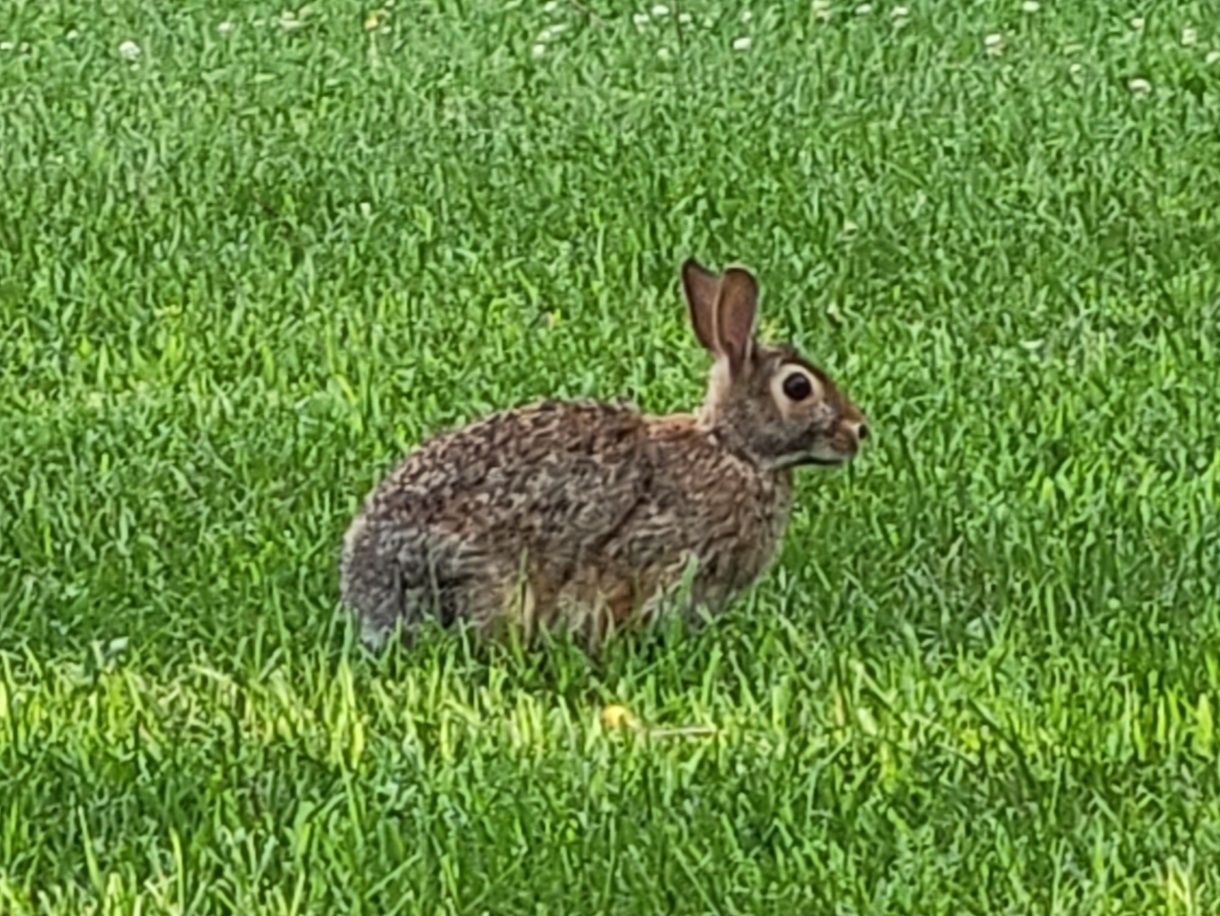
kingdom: Animalia
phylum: Chordata
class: Mammalia
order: Lagomorpha
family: Leporidae
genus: Sylvilagus
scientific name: Sylvilagus floridanus
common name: Eastern cottontail
